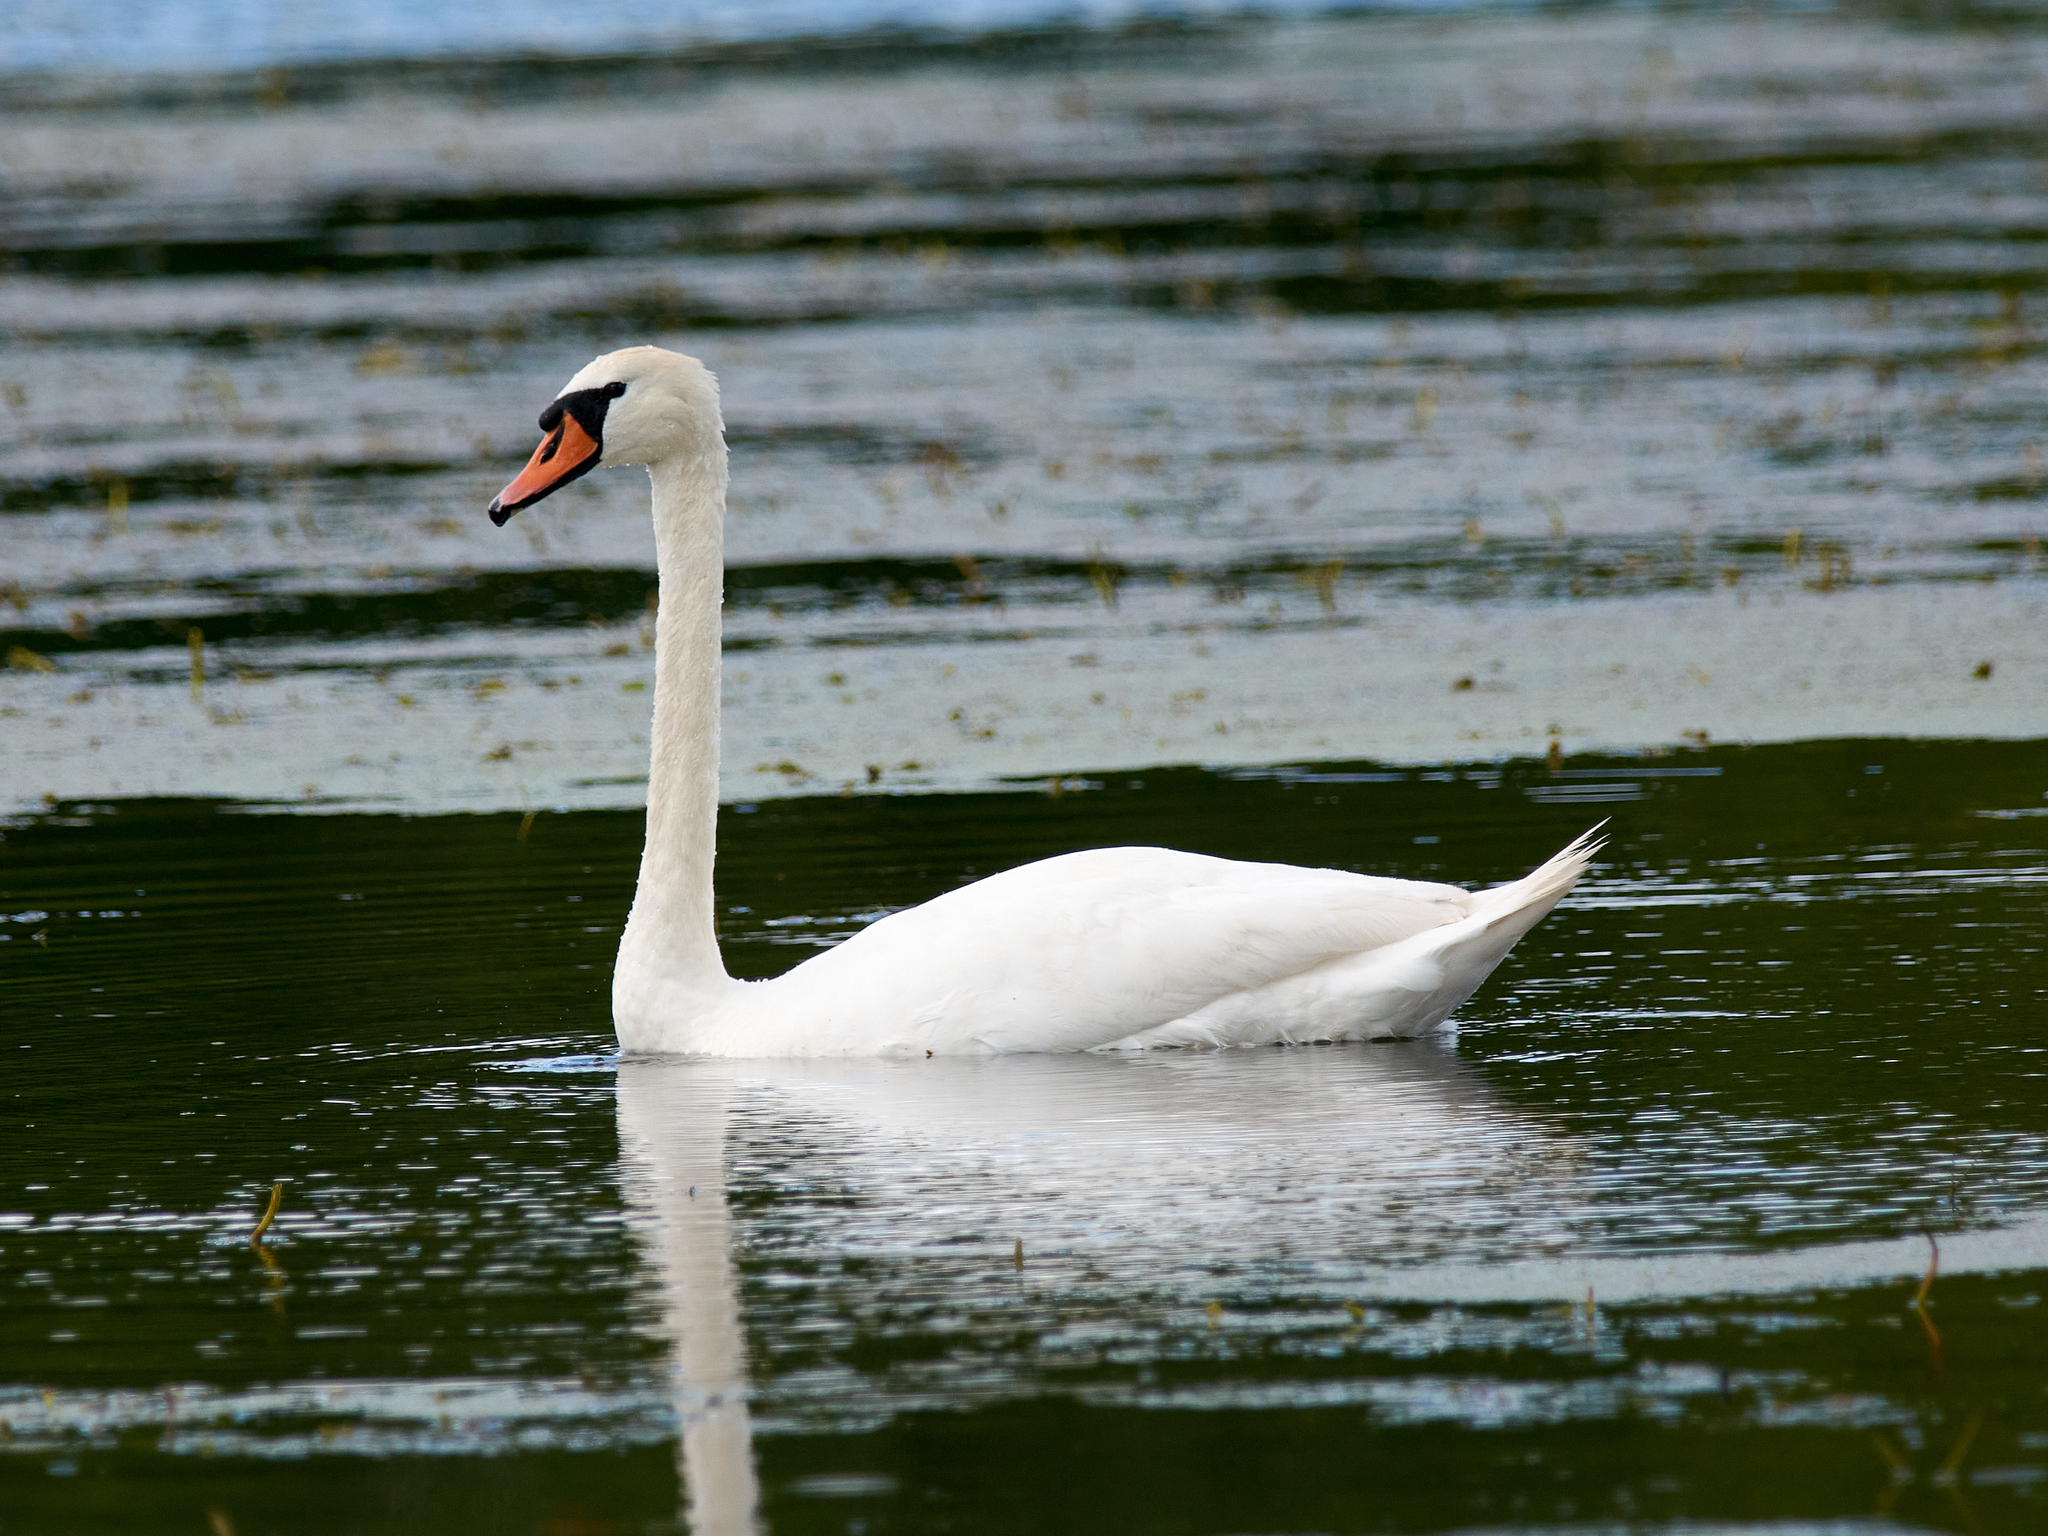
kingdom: Animalia
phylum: Chordata
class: Aves
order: Anseriformes
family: Anatidae
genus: Cygnus
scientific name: Cygnus olor
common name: Mute swan
